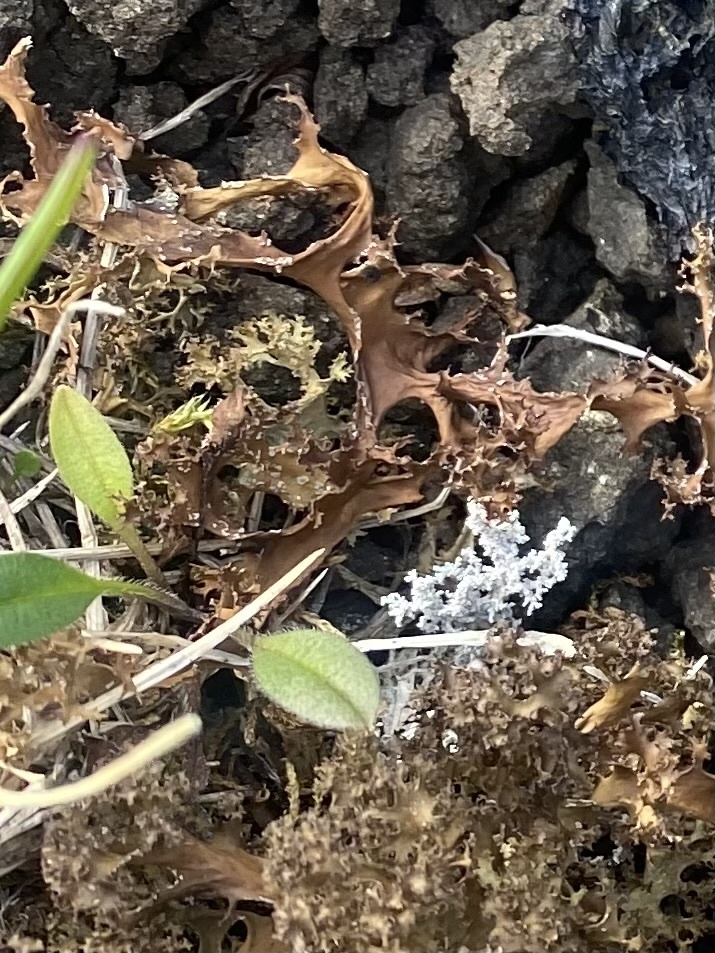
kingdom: Fungi
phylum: Ascomycota
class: Lecanoromycetes
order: Lecanorales
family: Parmeliaceae
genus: Cetraria
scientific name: Cetraria islandica
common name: Iceland lichen
